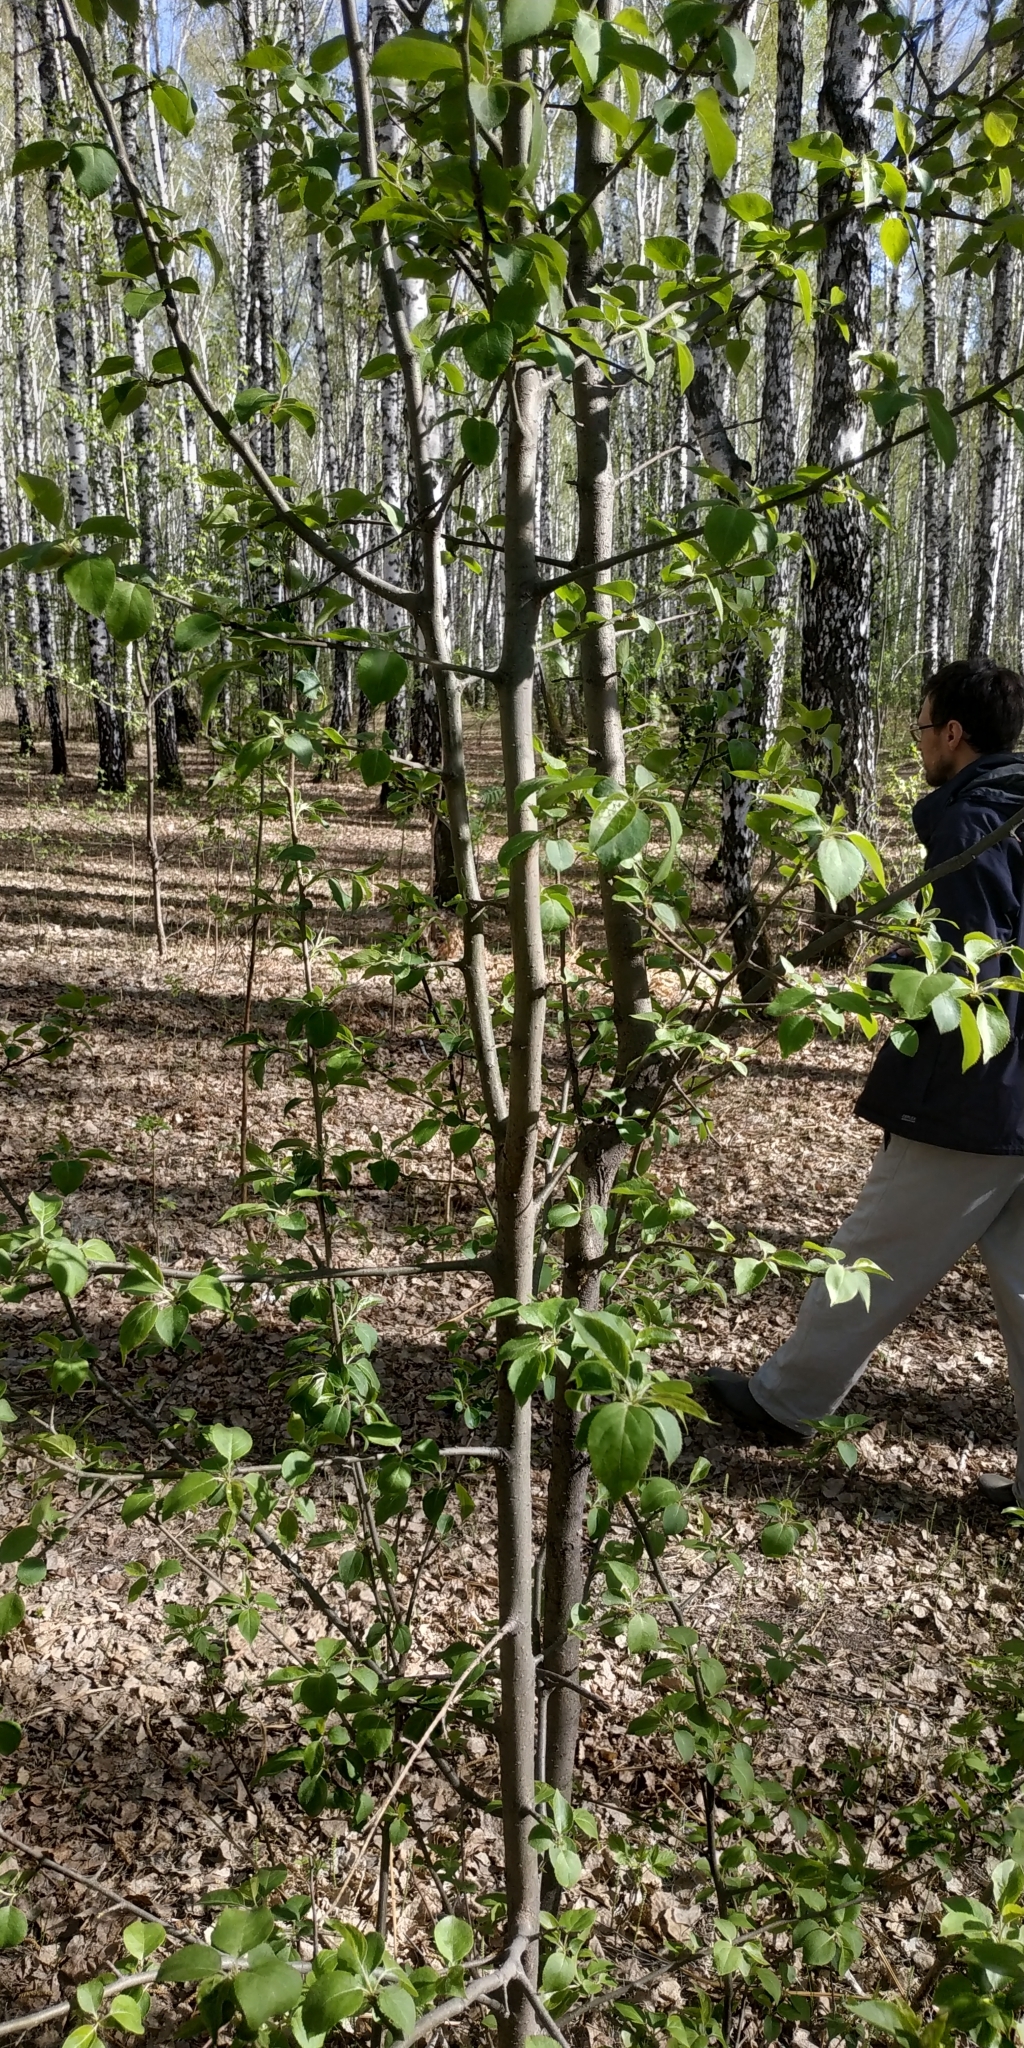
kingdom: Plantae
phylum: Tracheophyta
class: Magnoliopsida
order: Rosales
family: Rosaceae
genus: Malus
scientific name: Malus baccata
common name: Siberian crab
